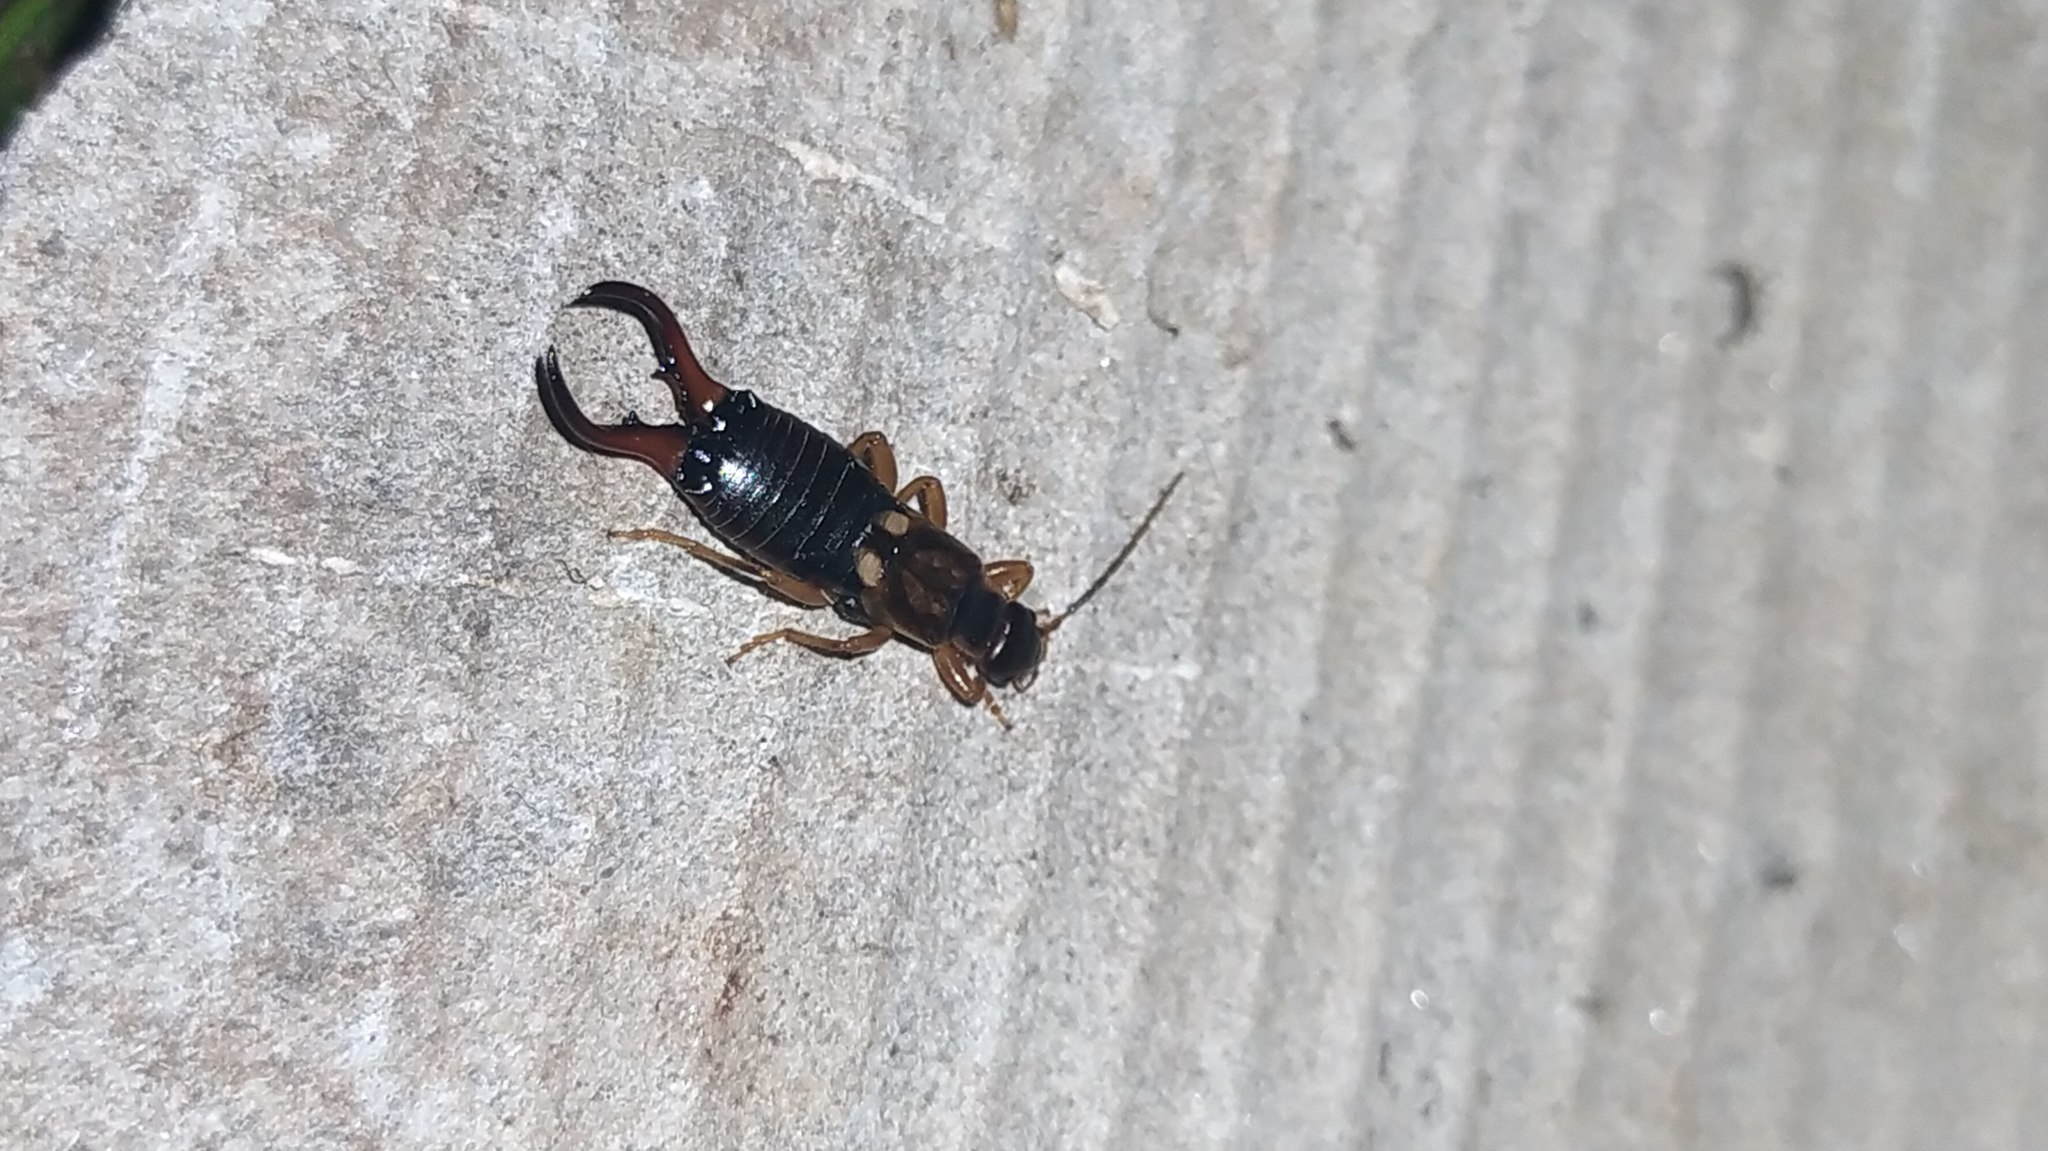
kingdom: Animalia
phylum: Arthropoda
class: Insecta
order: Dermaptera
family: Forficulidae
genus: Forficula
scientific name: Forficula
